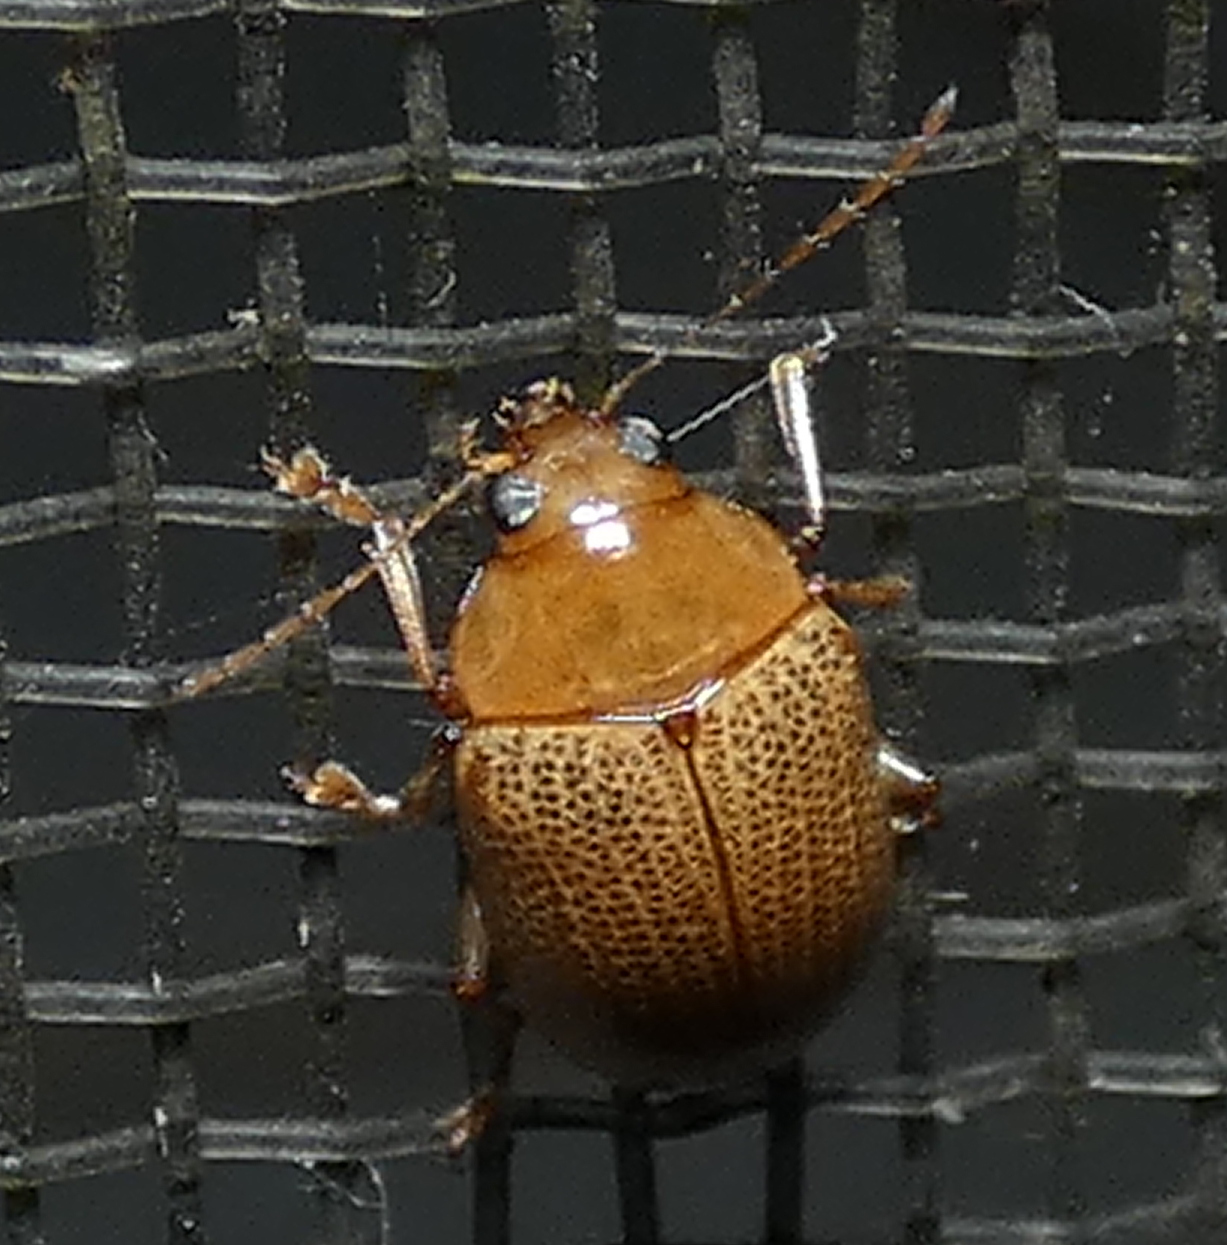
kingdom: Animalia
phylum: Arthropoda
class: Insecta
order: Coleoptera
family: Chrysomelidae
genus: Anisodera
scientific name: Anisodera ferruginea
